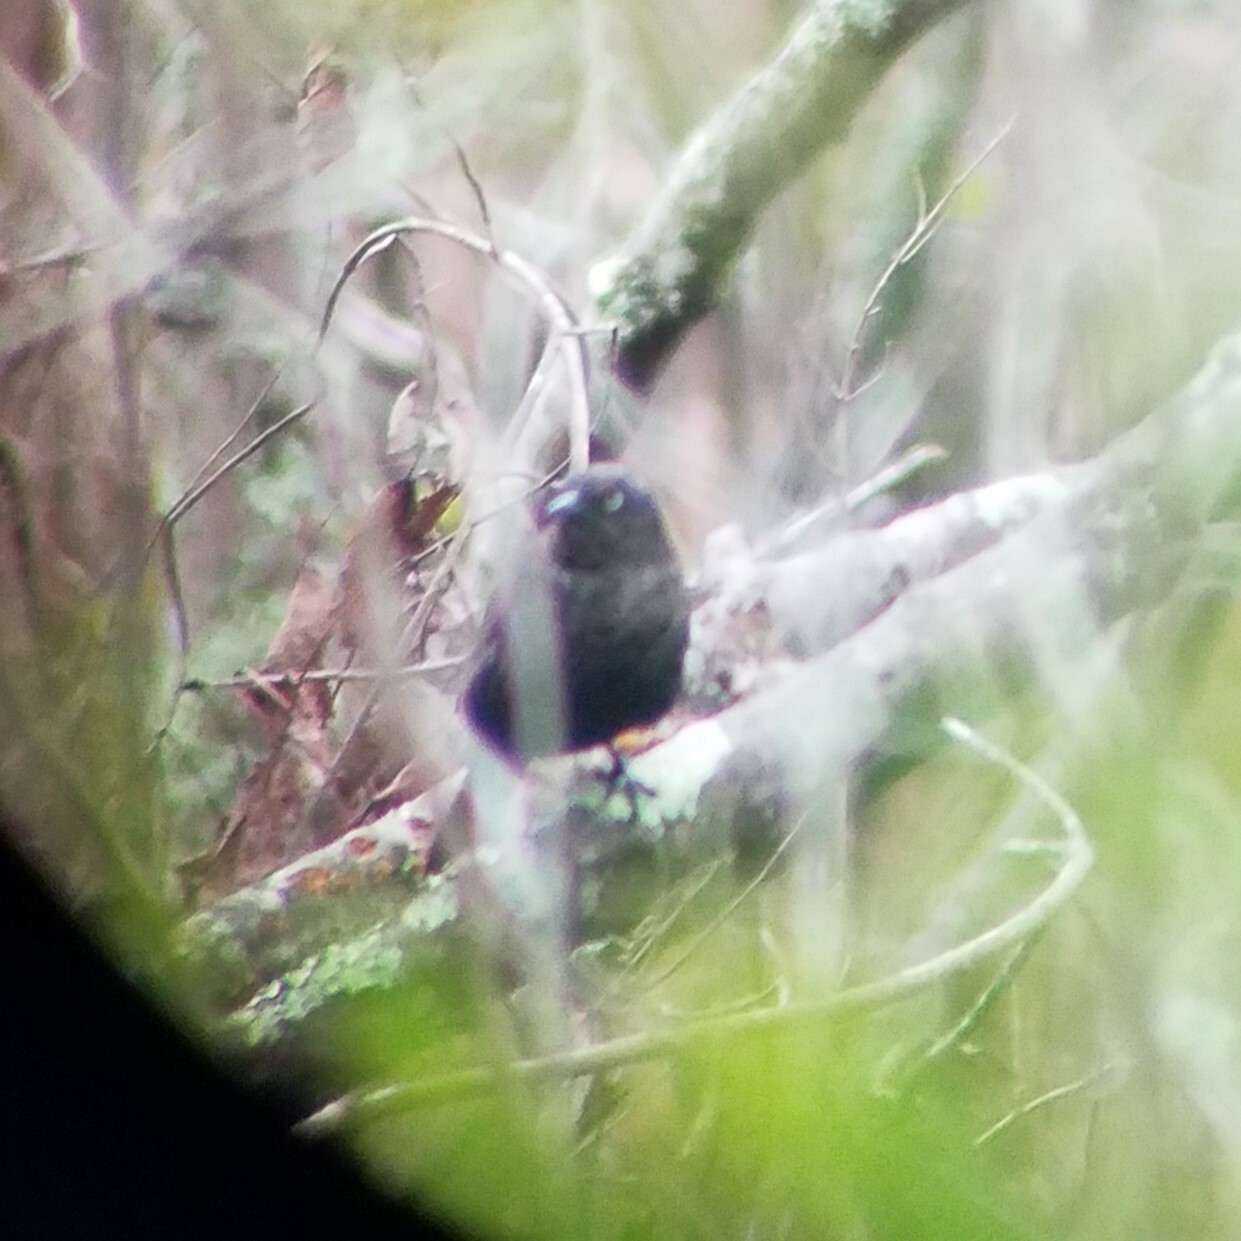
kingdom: Animalia
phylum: Chordata
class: Aves
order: Passeriformes
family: Icteridae
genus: Euphagus
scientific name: Euphagus carolinus
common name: Rusty blackbird
